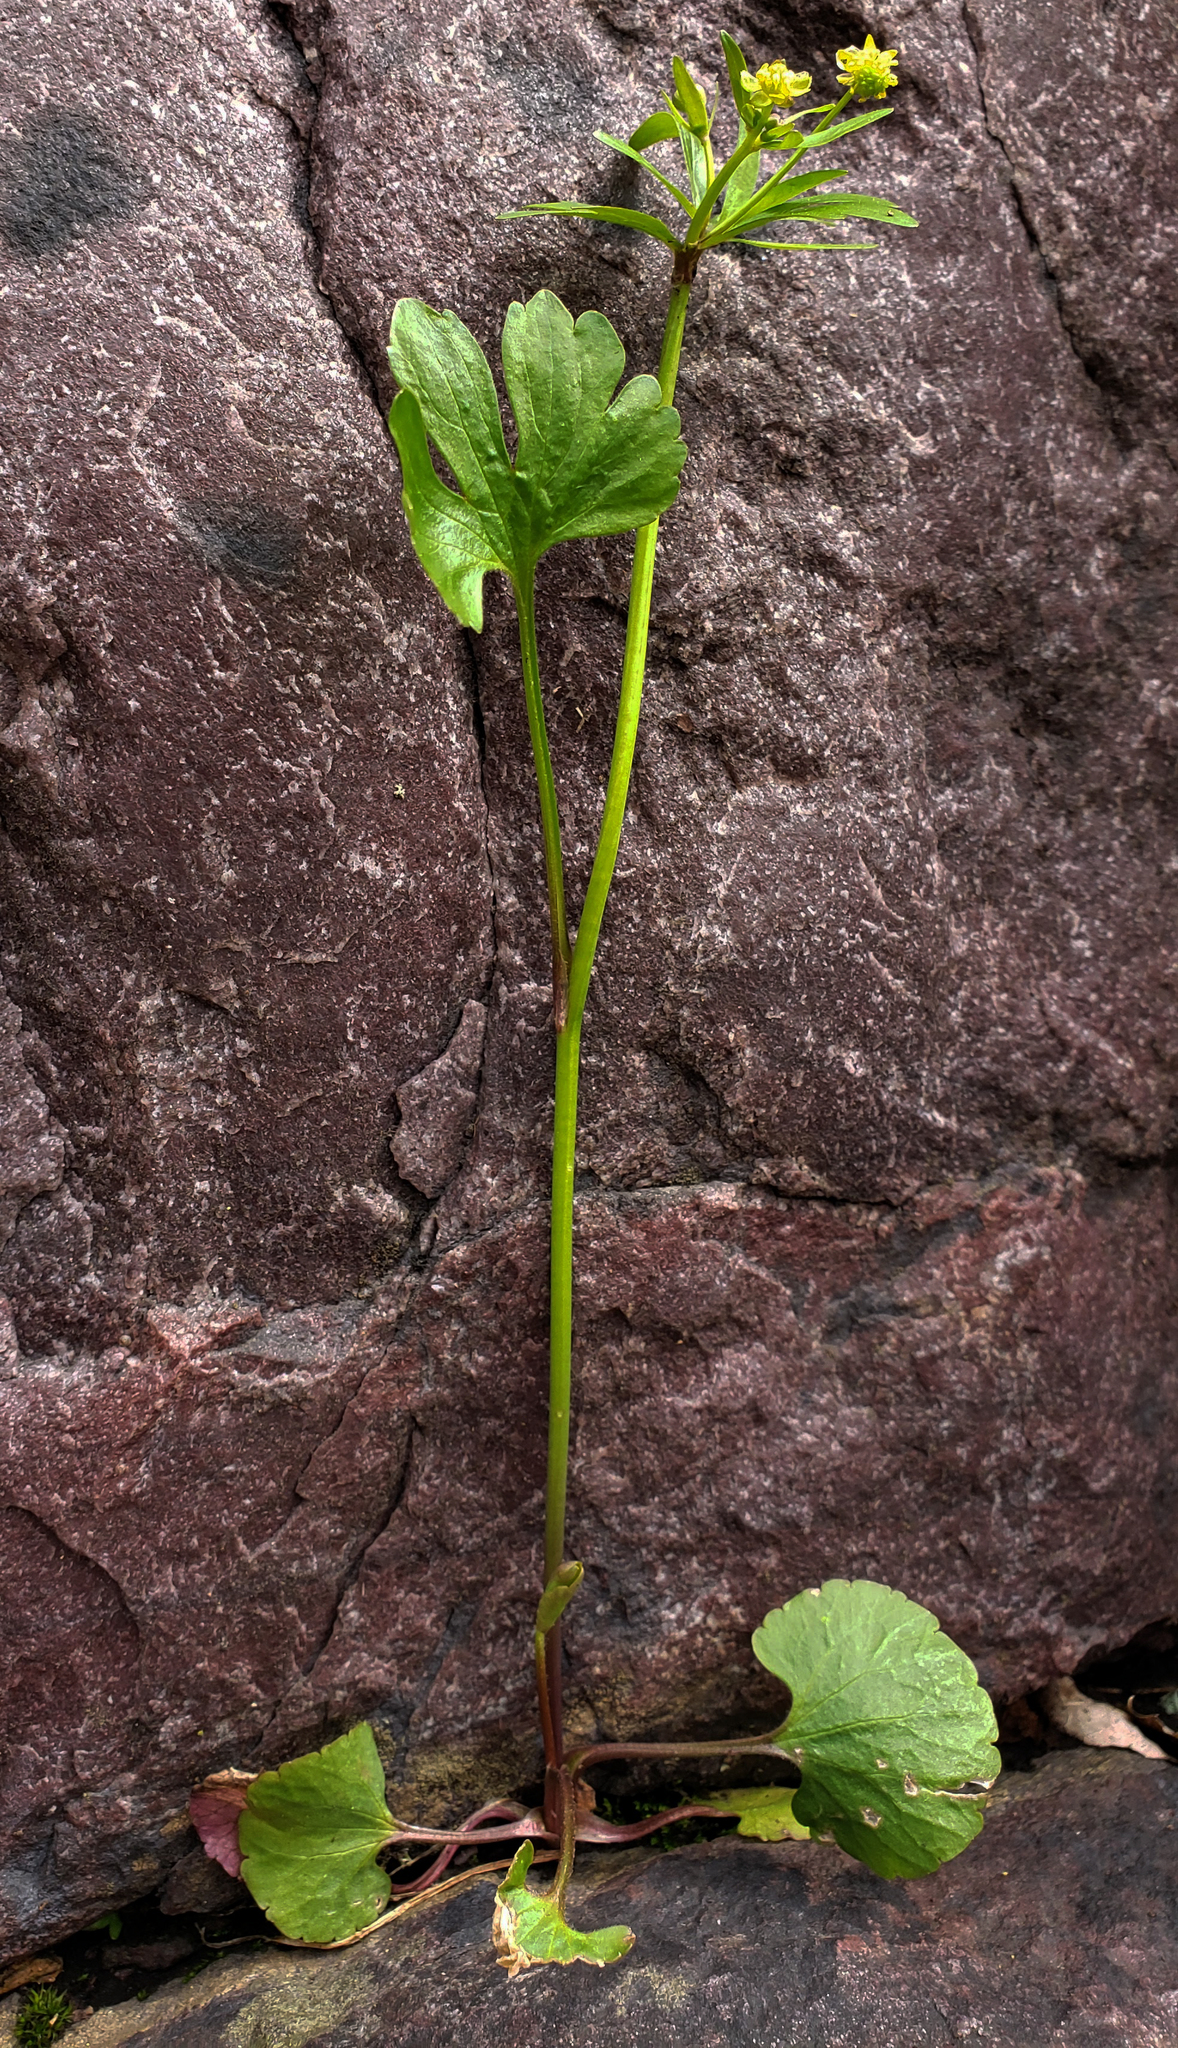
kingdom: Plantae
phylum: Tracheophyta
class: Magnoliopsida
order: Ranunculales
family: Ranunculaceae
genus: Ranunculus
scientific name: Ranunculus abortivus
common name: Early wood buttercup
